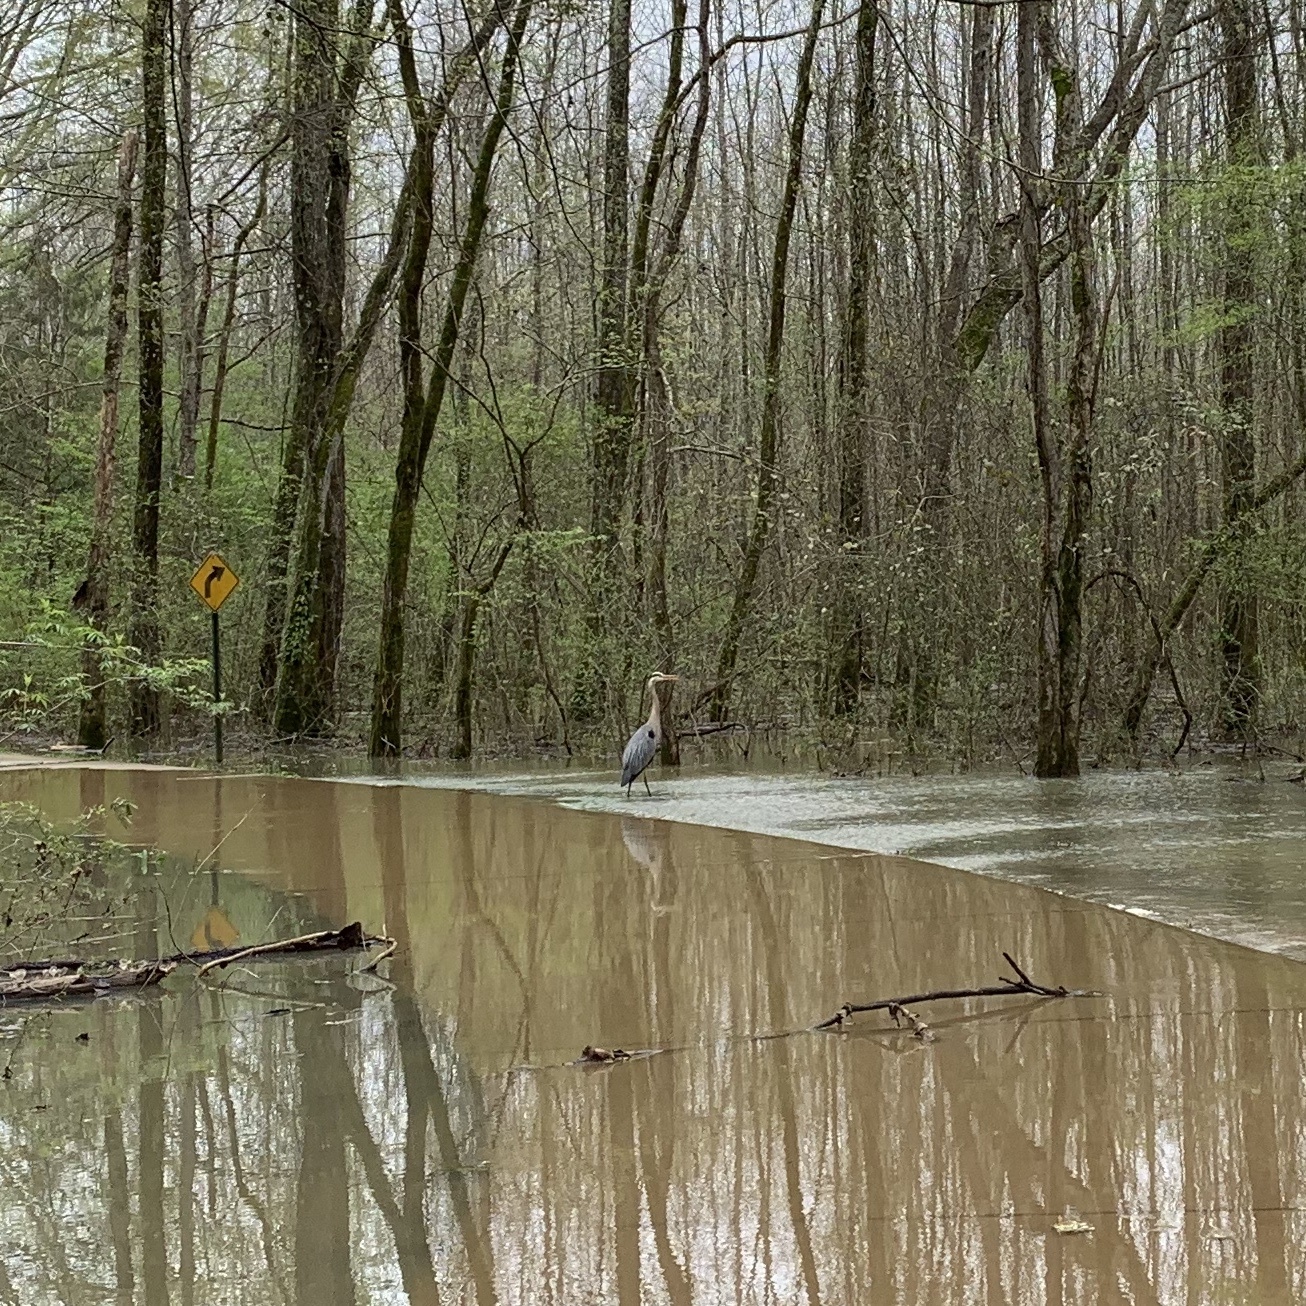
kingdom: Animalia
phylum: Chordata
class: Aves
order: Pelecaniformes
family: Ardeidae
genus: Ardea
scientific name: Ardea herodias
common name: Great blue heron
